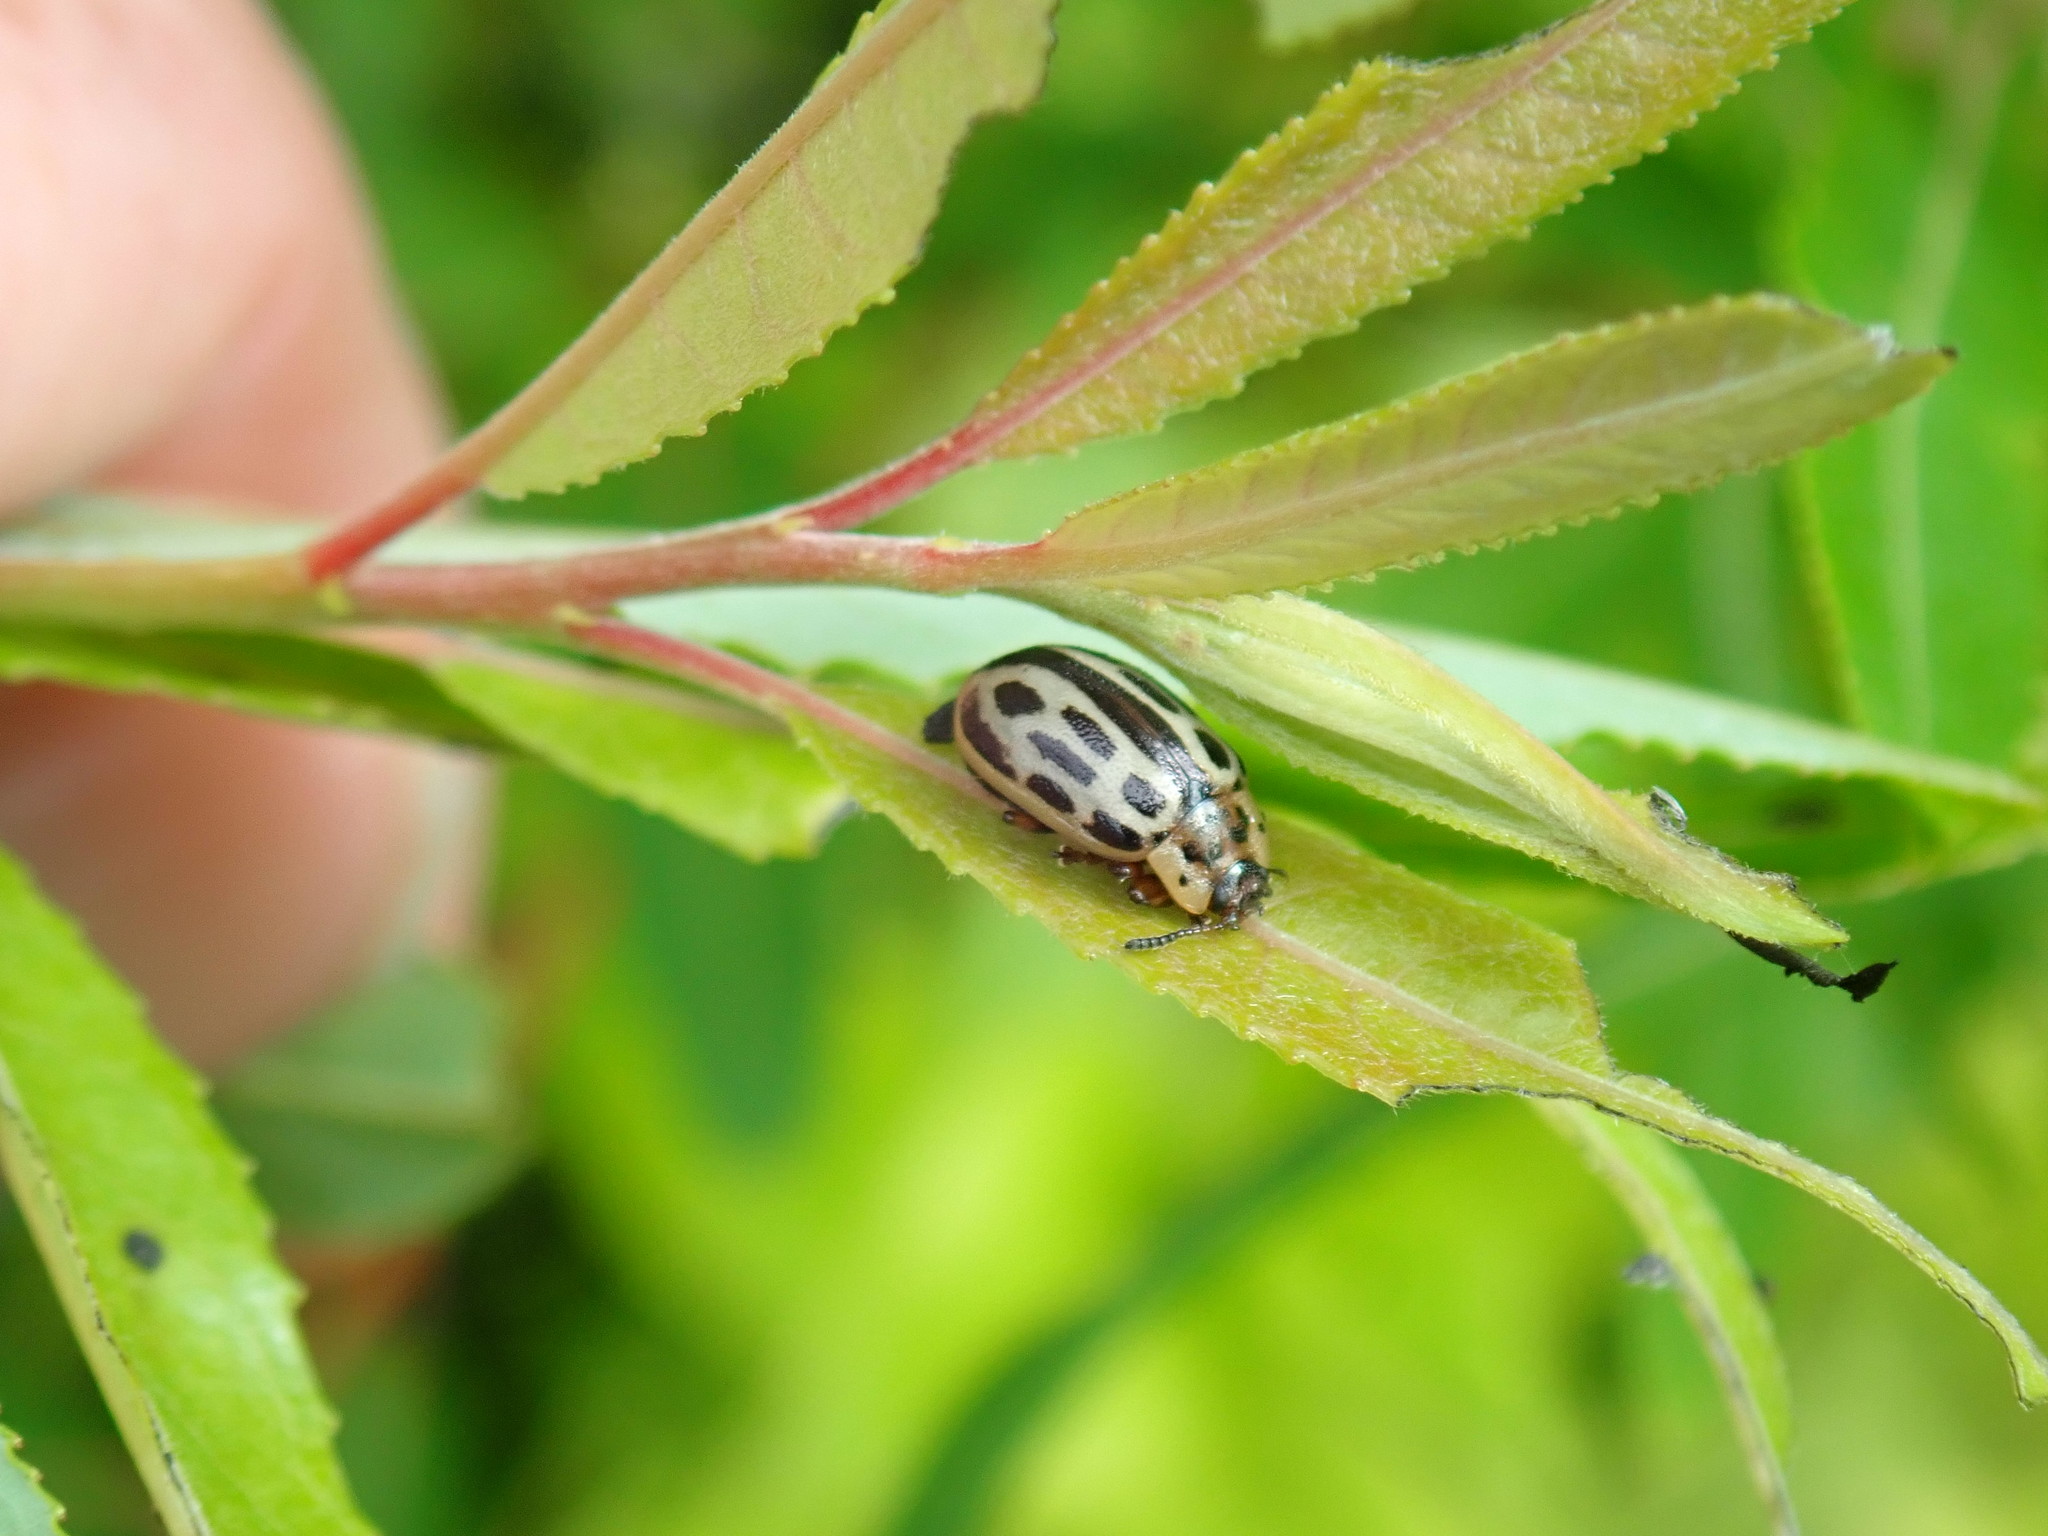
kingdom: Animalia
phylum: Arthropoda
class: Insecta
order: Coleoptera
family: Chrysomelidae
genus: Aethiopocassis
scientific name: Aethiopocassis scripta
